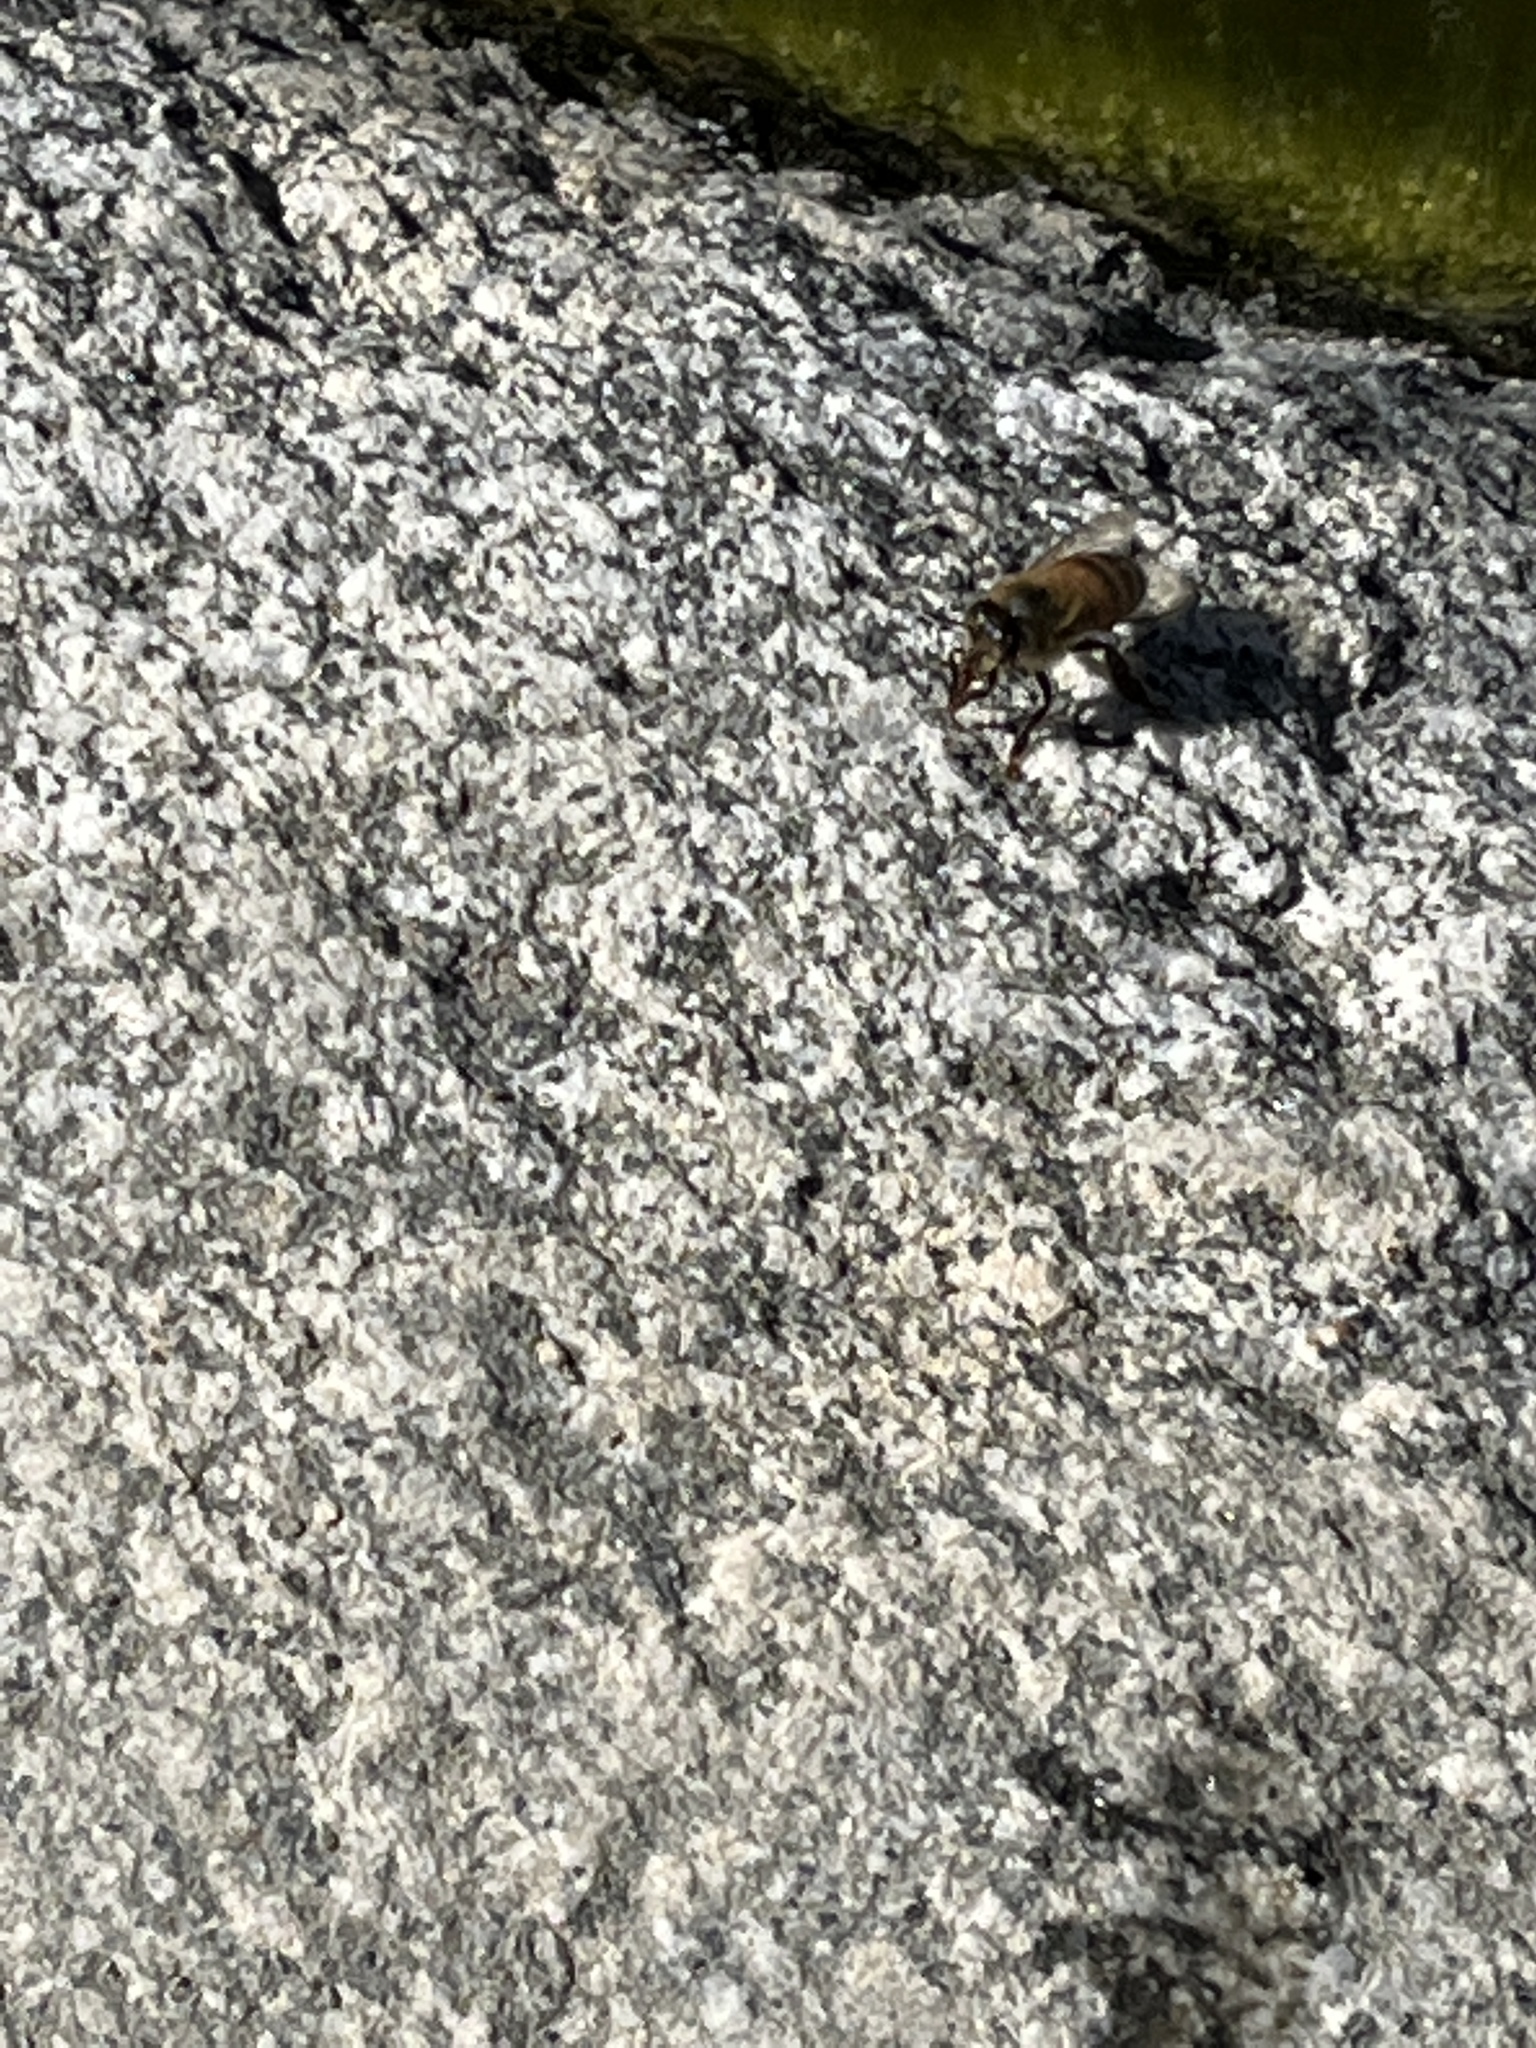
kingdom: Animalia
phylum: Arthropoda
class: Insecta
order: Hymenoptera
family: Apidae
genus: Apis
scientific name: Apis mellifera
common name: Honey bee
